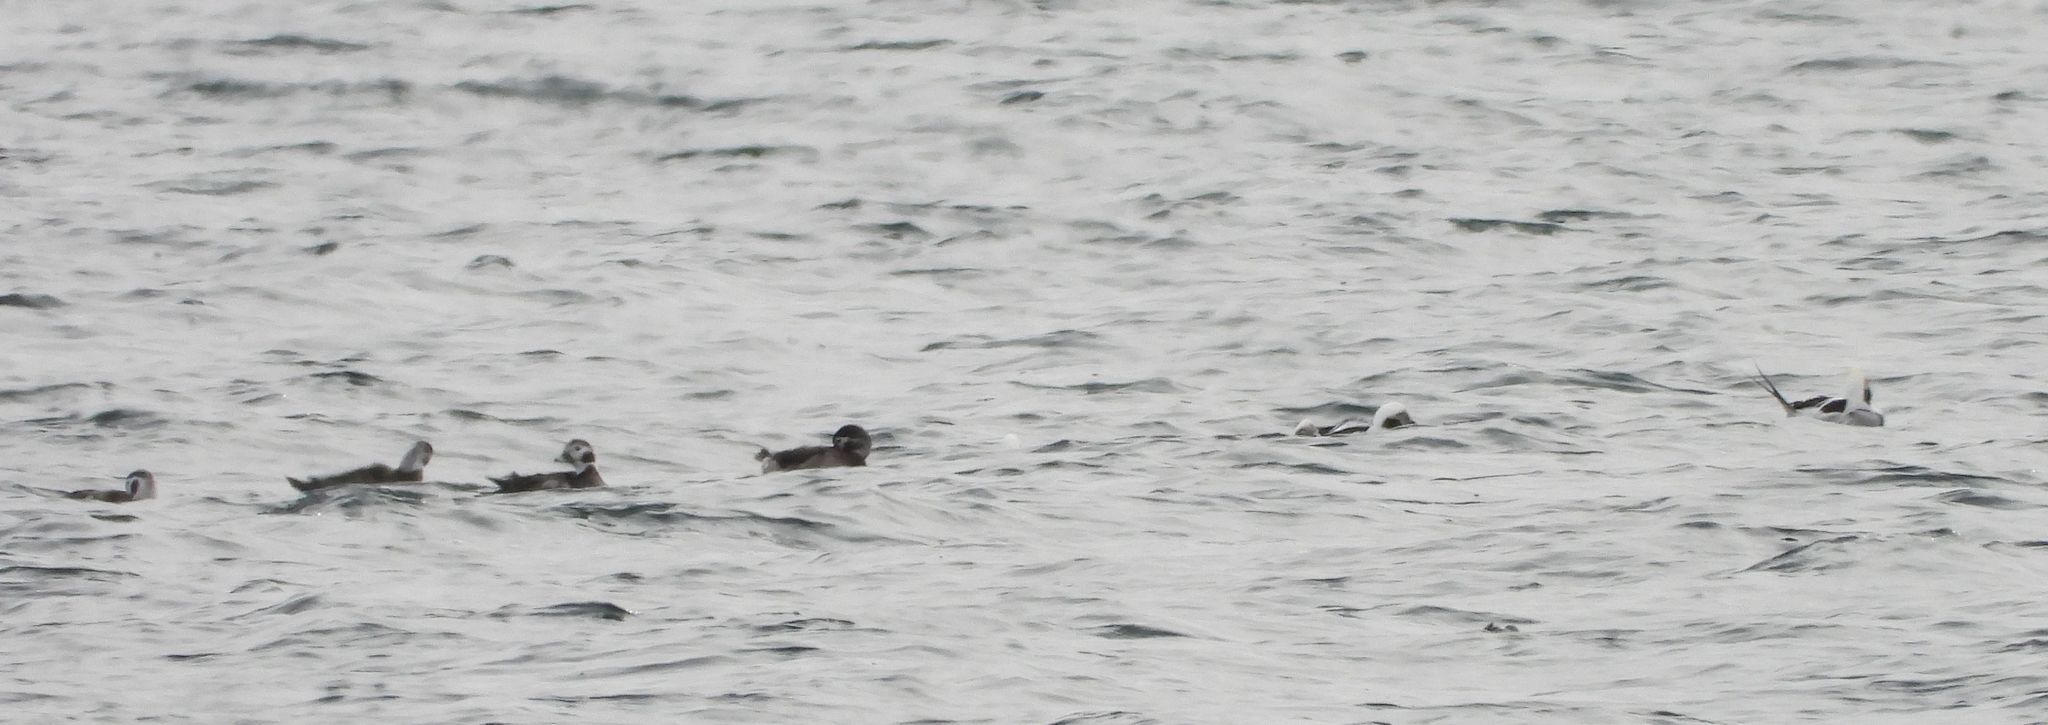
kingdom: Animalia
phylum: Chordata
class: Aves
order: Anseriformes
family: Anatidae
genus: Clangula
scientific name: Clangula hyemalis
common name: Long-tailed duck
